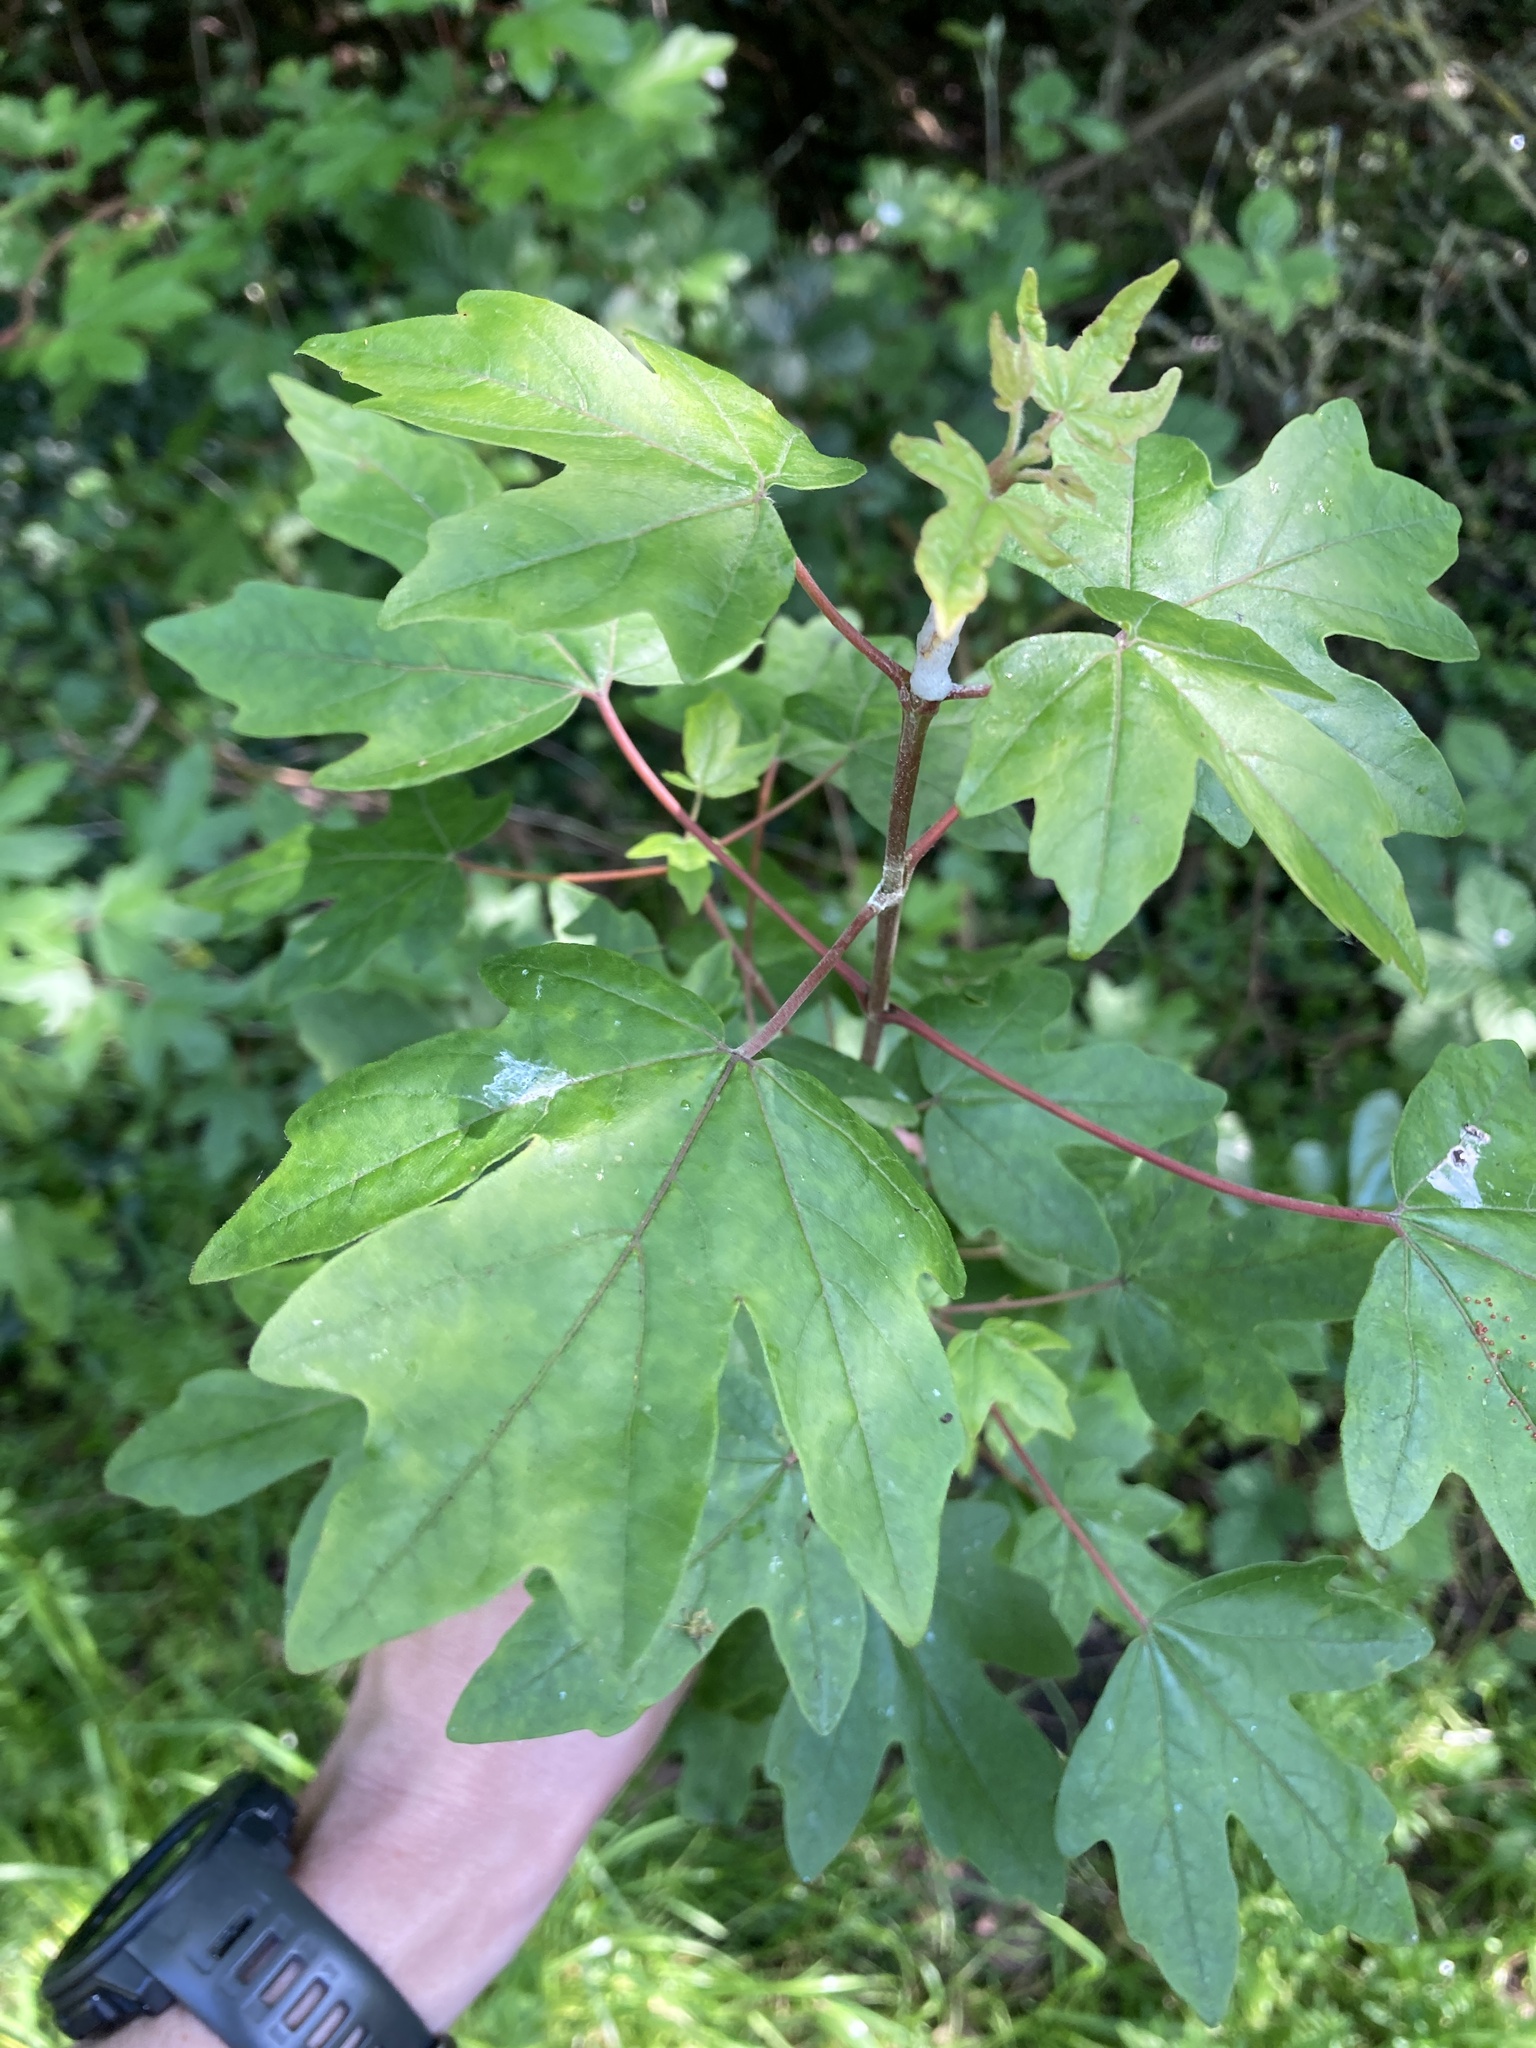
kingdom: Plantae
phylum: Tracheophyta
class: Magnoliopsida
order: Sapindales
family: Sapindaceae
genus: Acer
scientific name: Acer campestre
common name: Field maple
